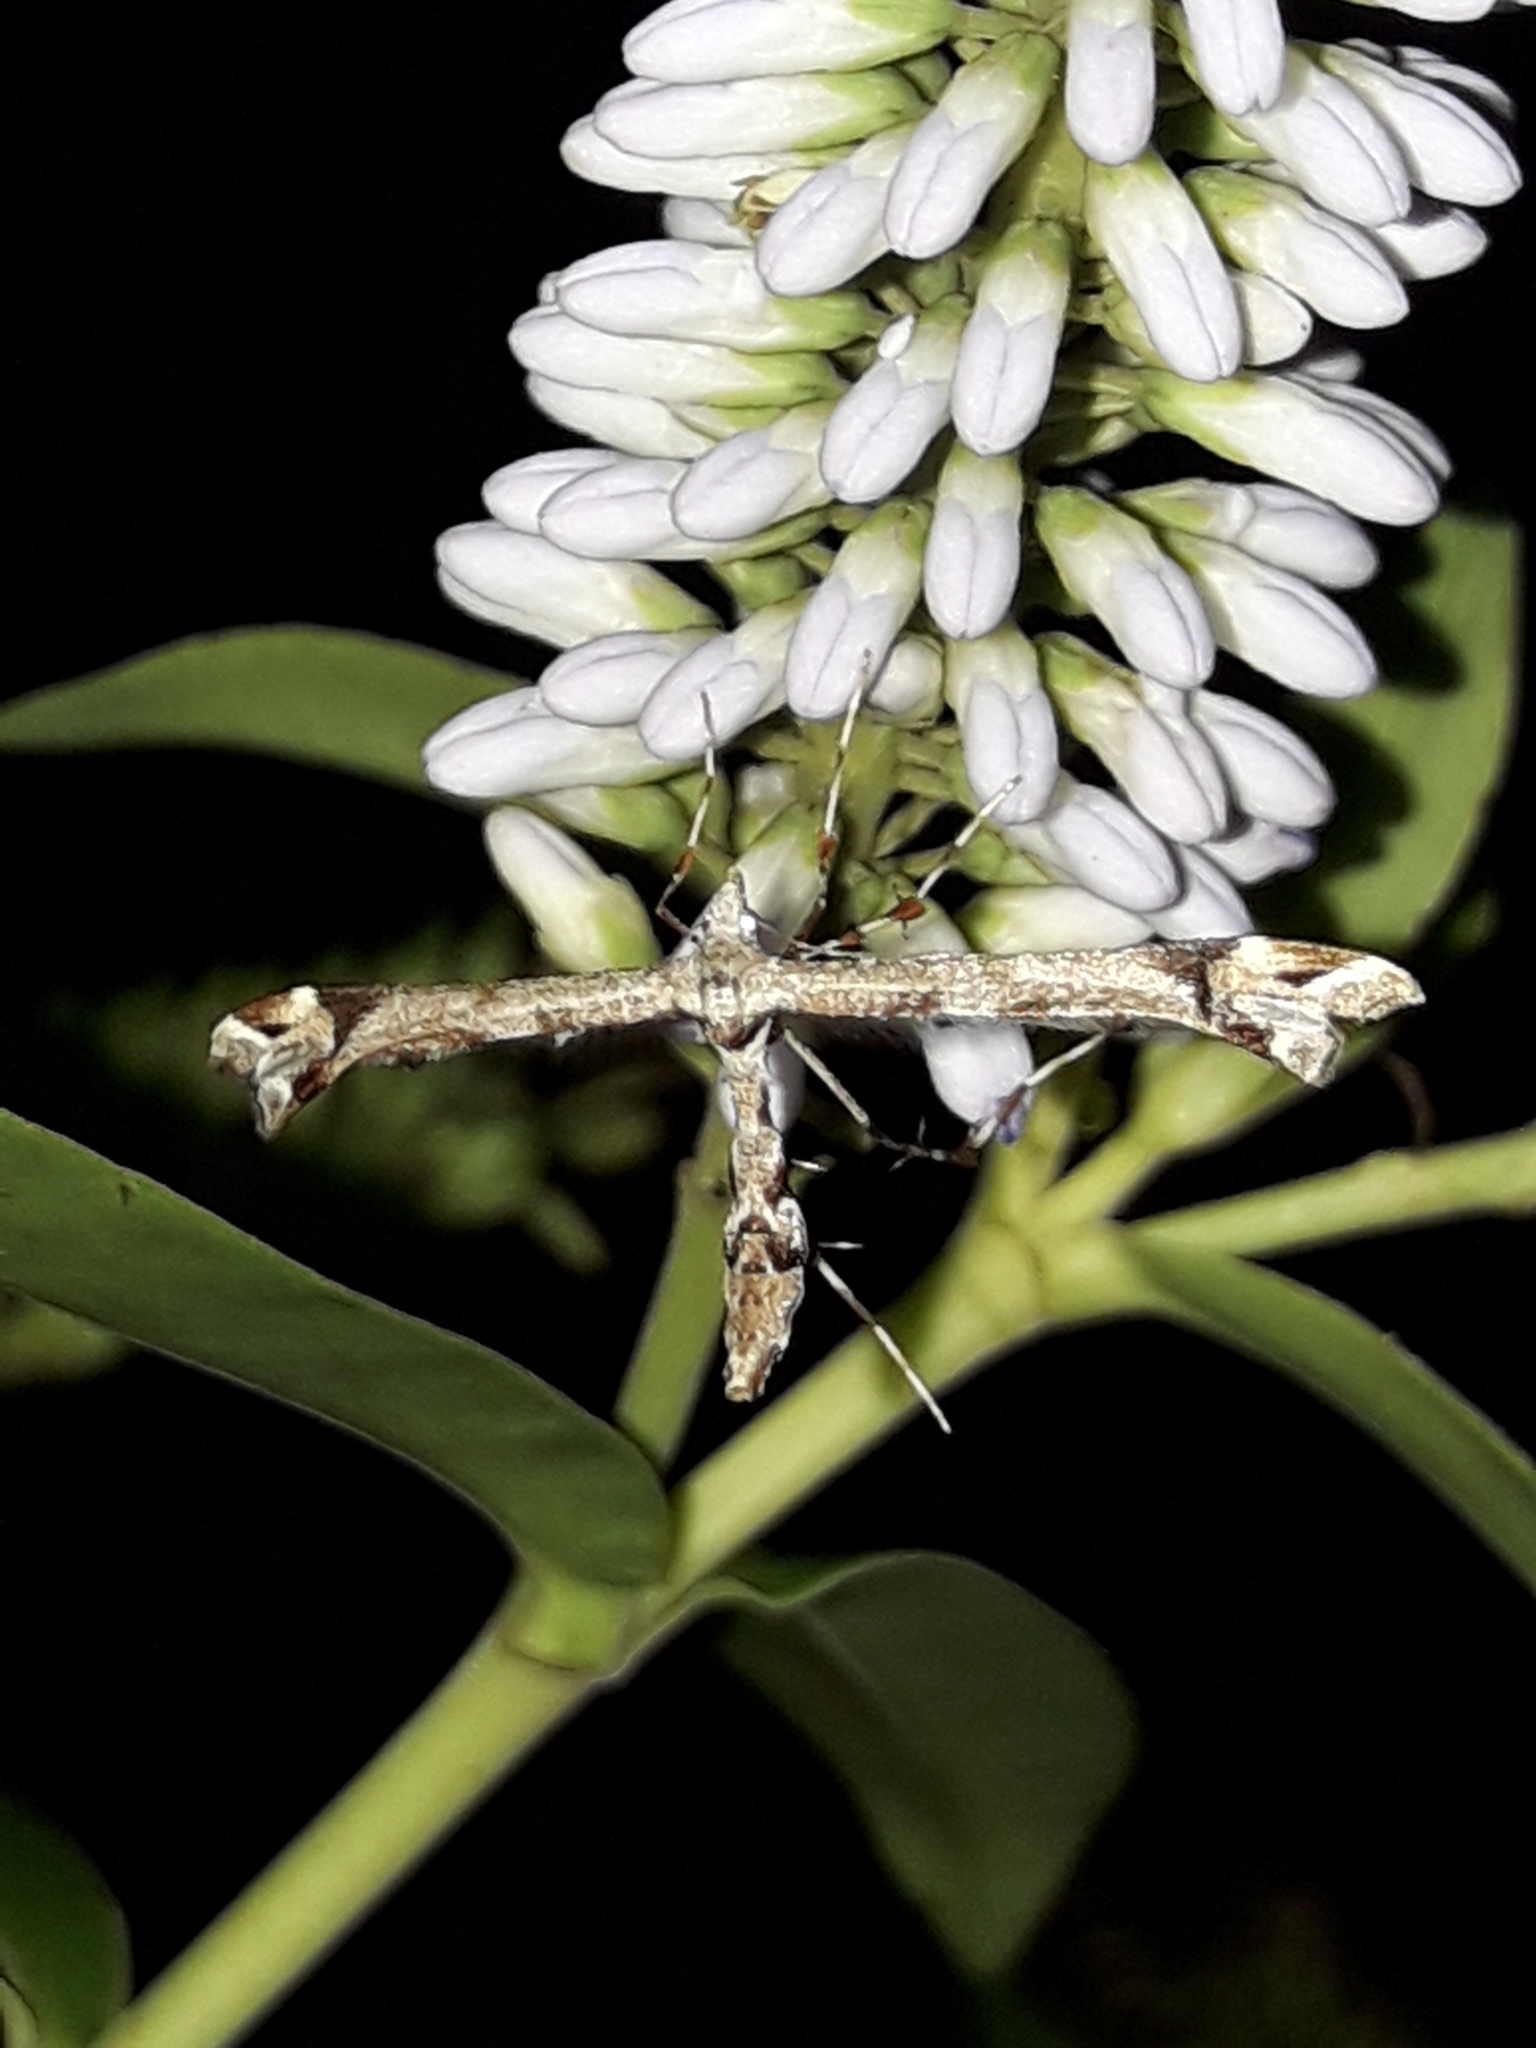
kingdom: Animalia
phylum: Arthropoda
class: Insecta
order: Lepidoptera
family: Pterophoridae
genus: Amblyptilia
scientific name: Amblyptilia falcatalis
